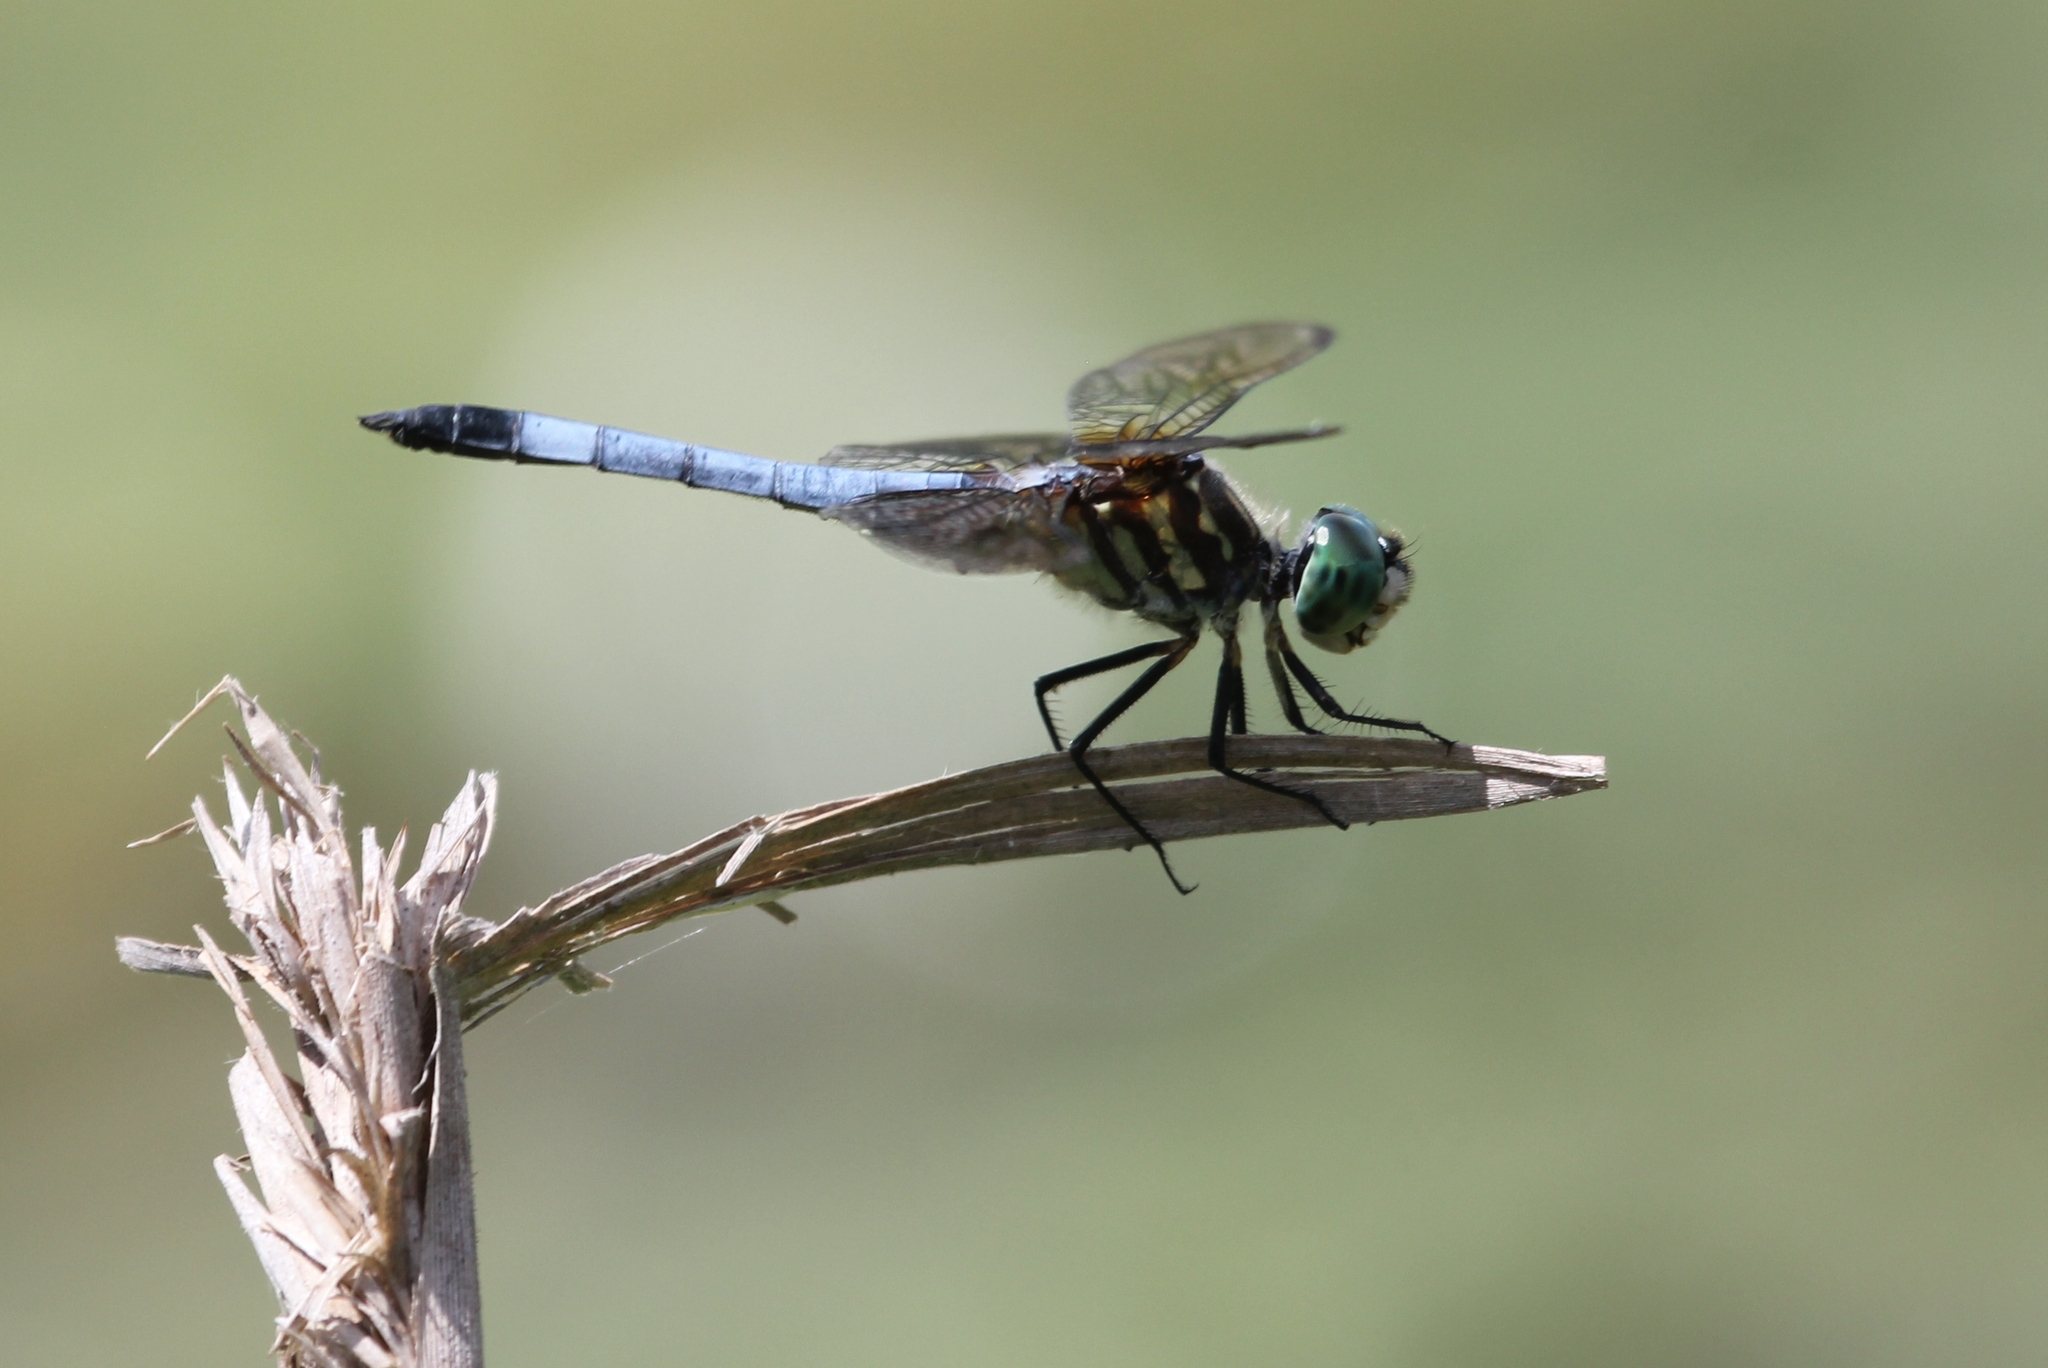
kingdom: Animalia
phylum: Arthropoda
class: Insecta
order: Odonata
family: Libellulidae
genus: Pachydiplax
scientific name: Pachydiplax longipennis
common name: Blue dasher
